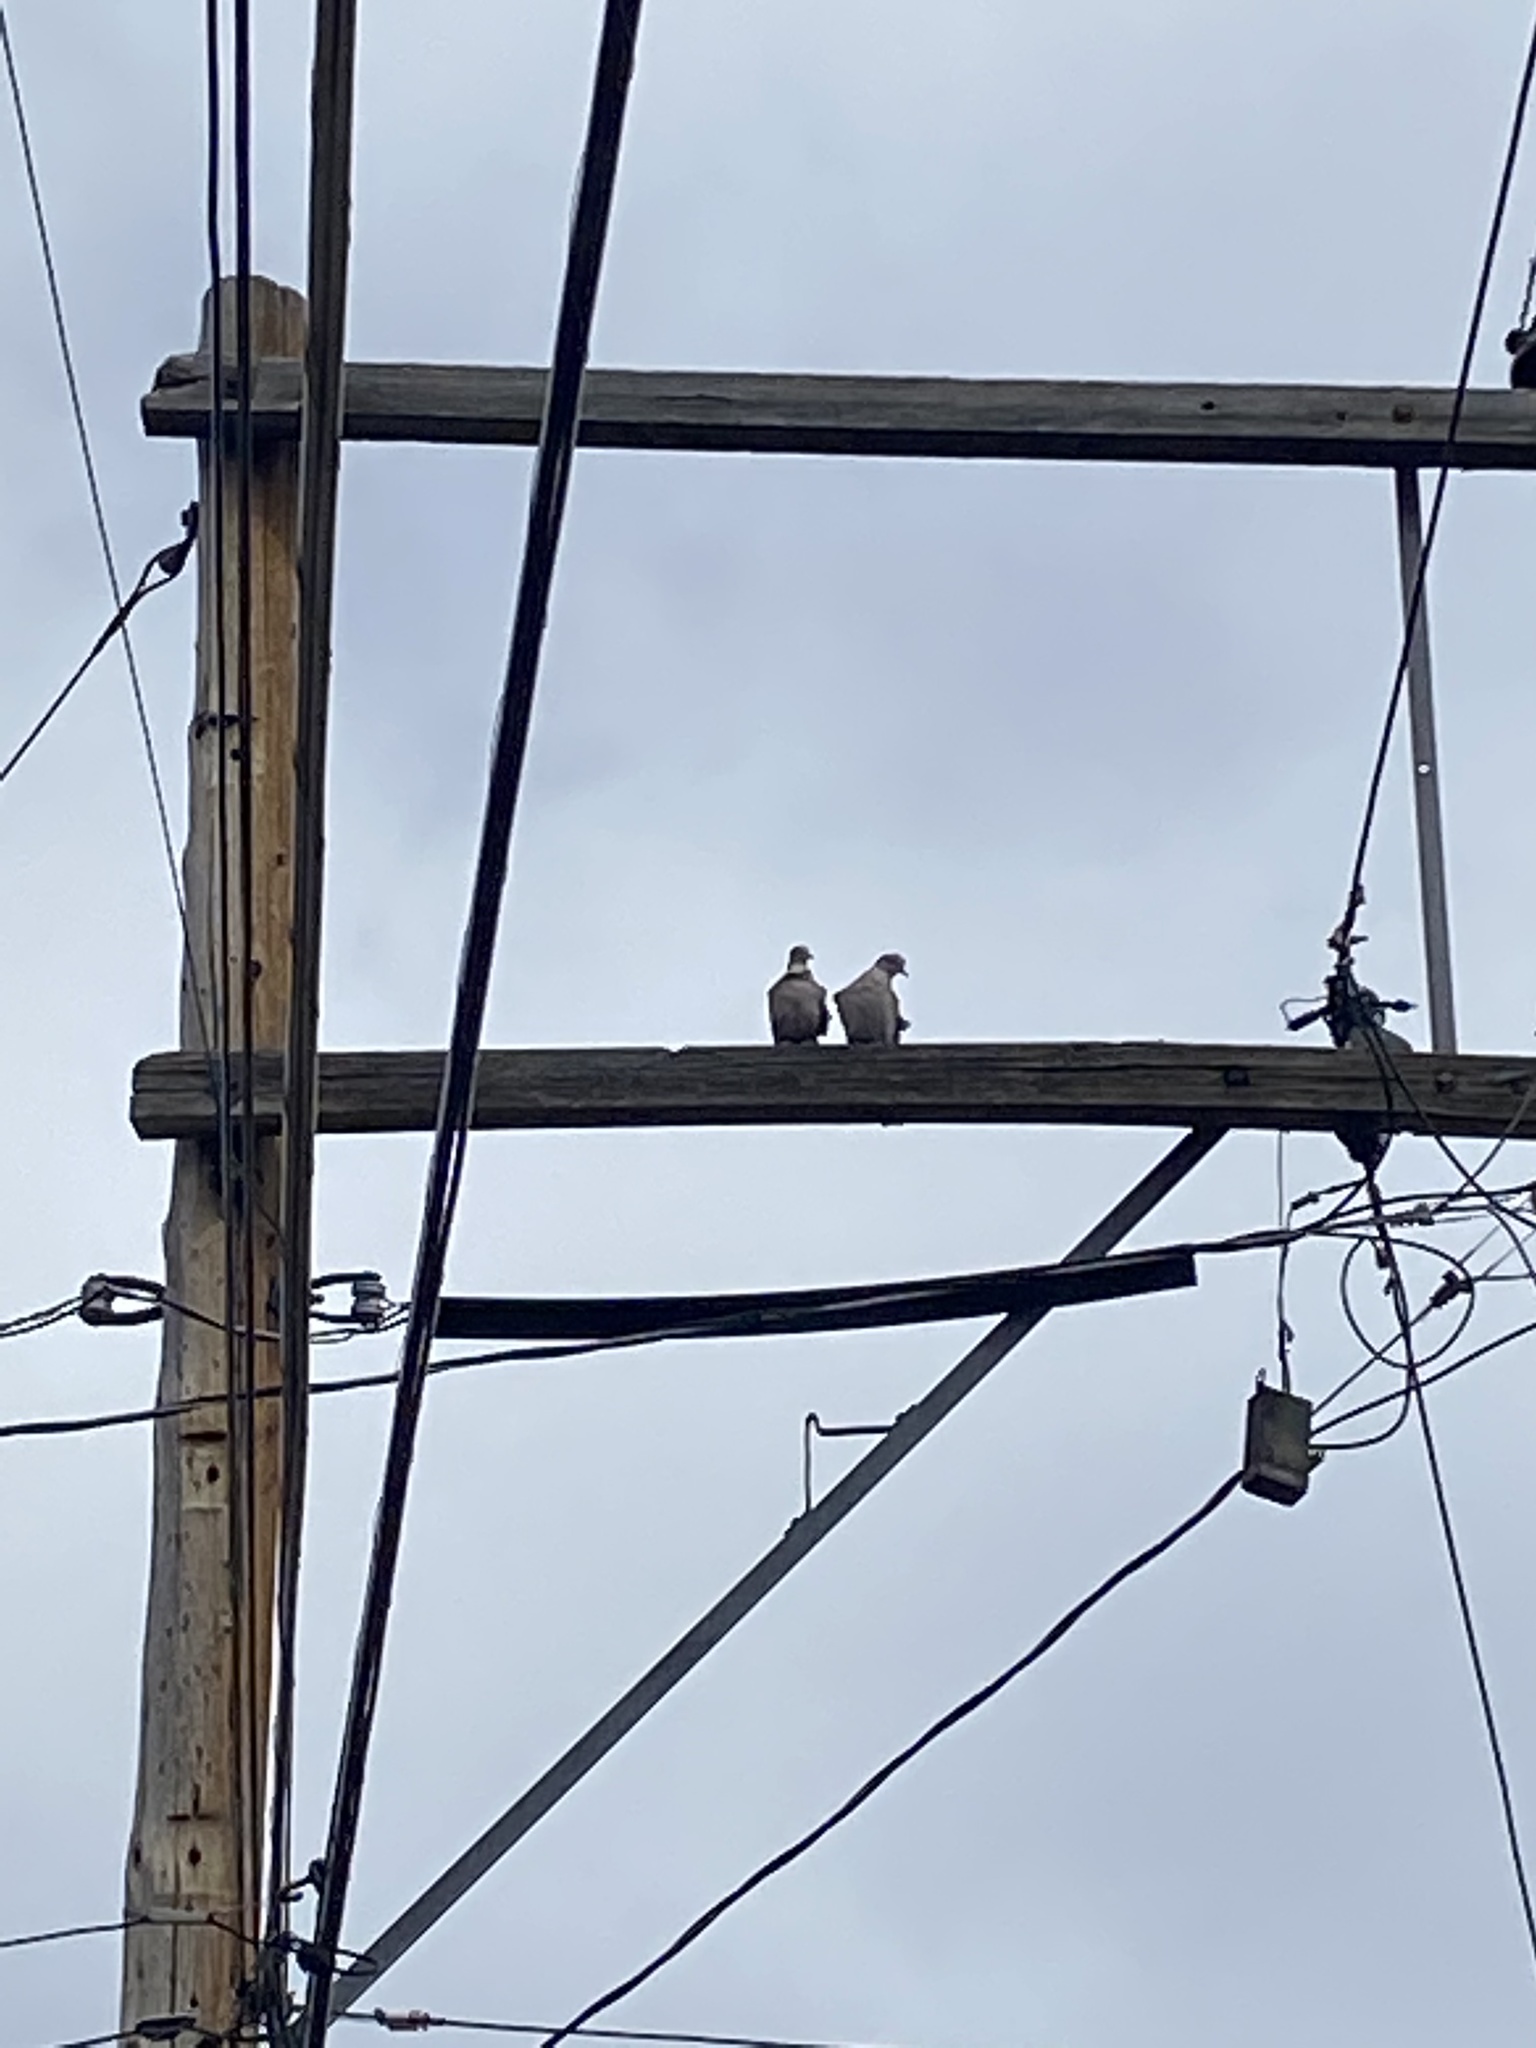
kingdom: Animalia
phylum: Chordata
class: Aves
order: Columbiformes
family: Columbidae
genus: Streptopelia
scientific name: Streptopelia decaocto
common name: Eurasian collared dove
